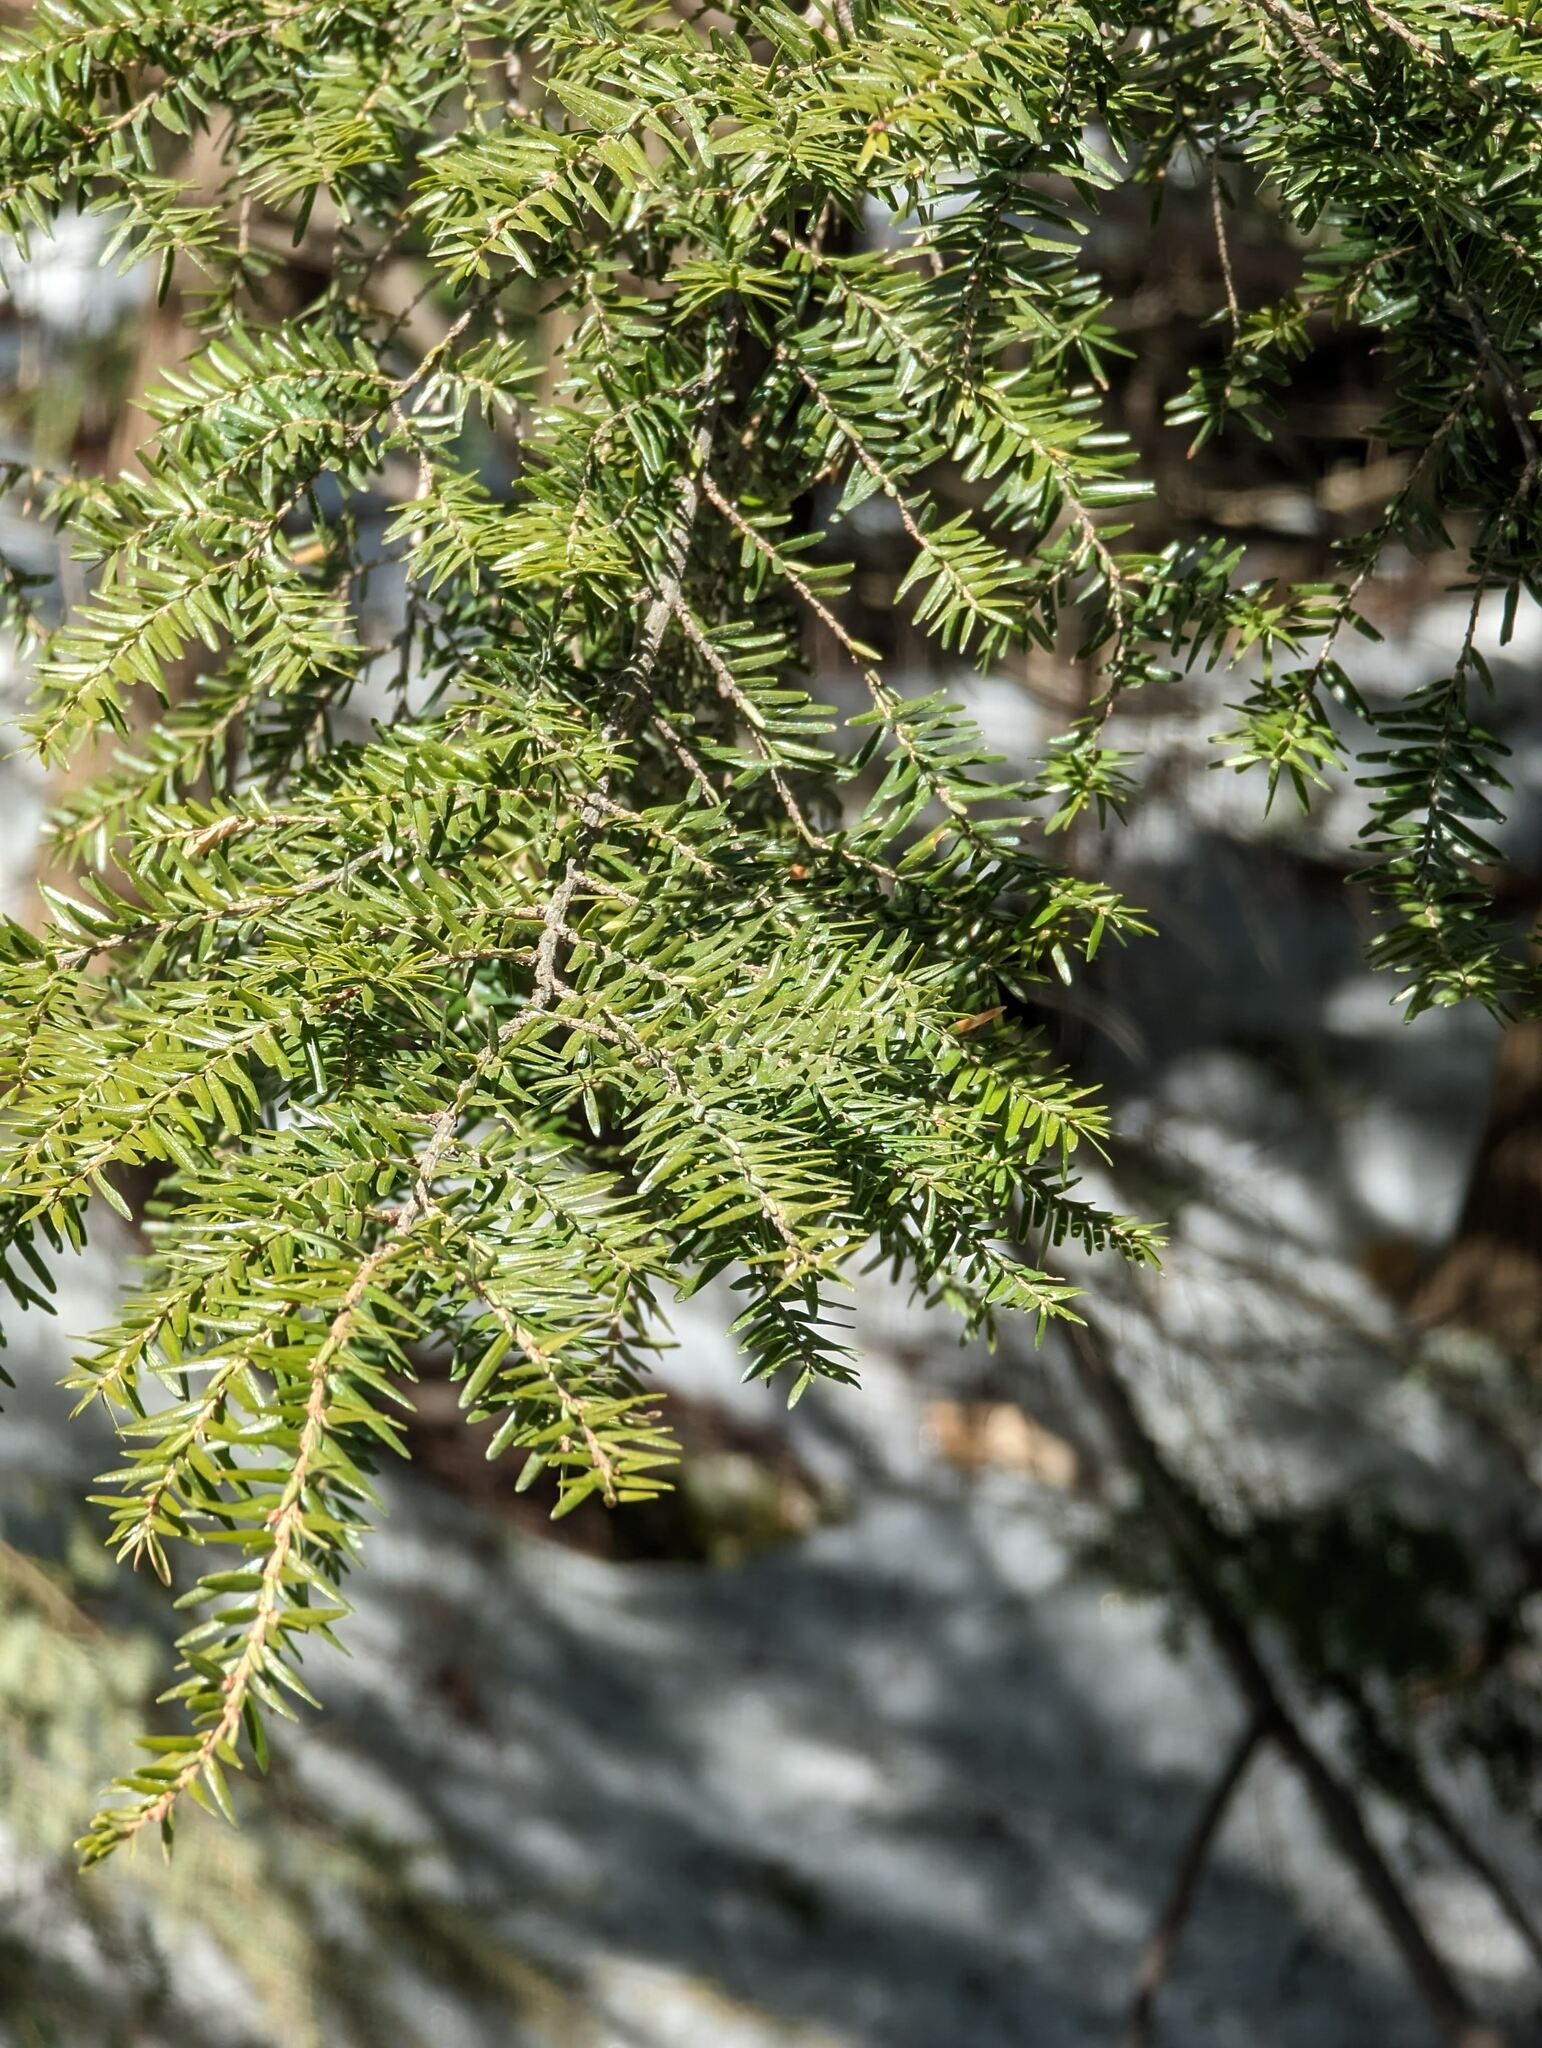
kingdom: Plantae
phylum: Tracheophyta
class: Pinopsida
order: Pinales
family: Pinaceae
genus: Tsuga
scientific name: Tsuga canadensis
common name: Eastern hemlock
